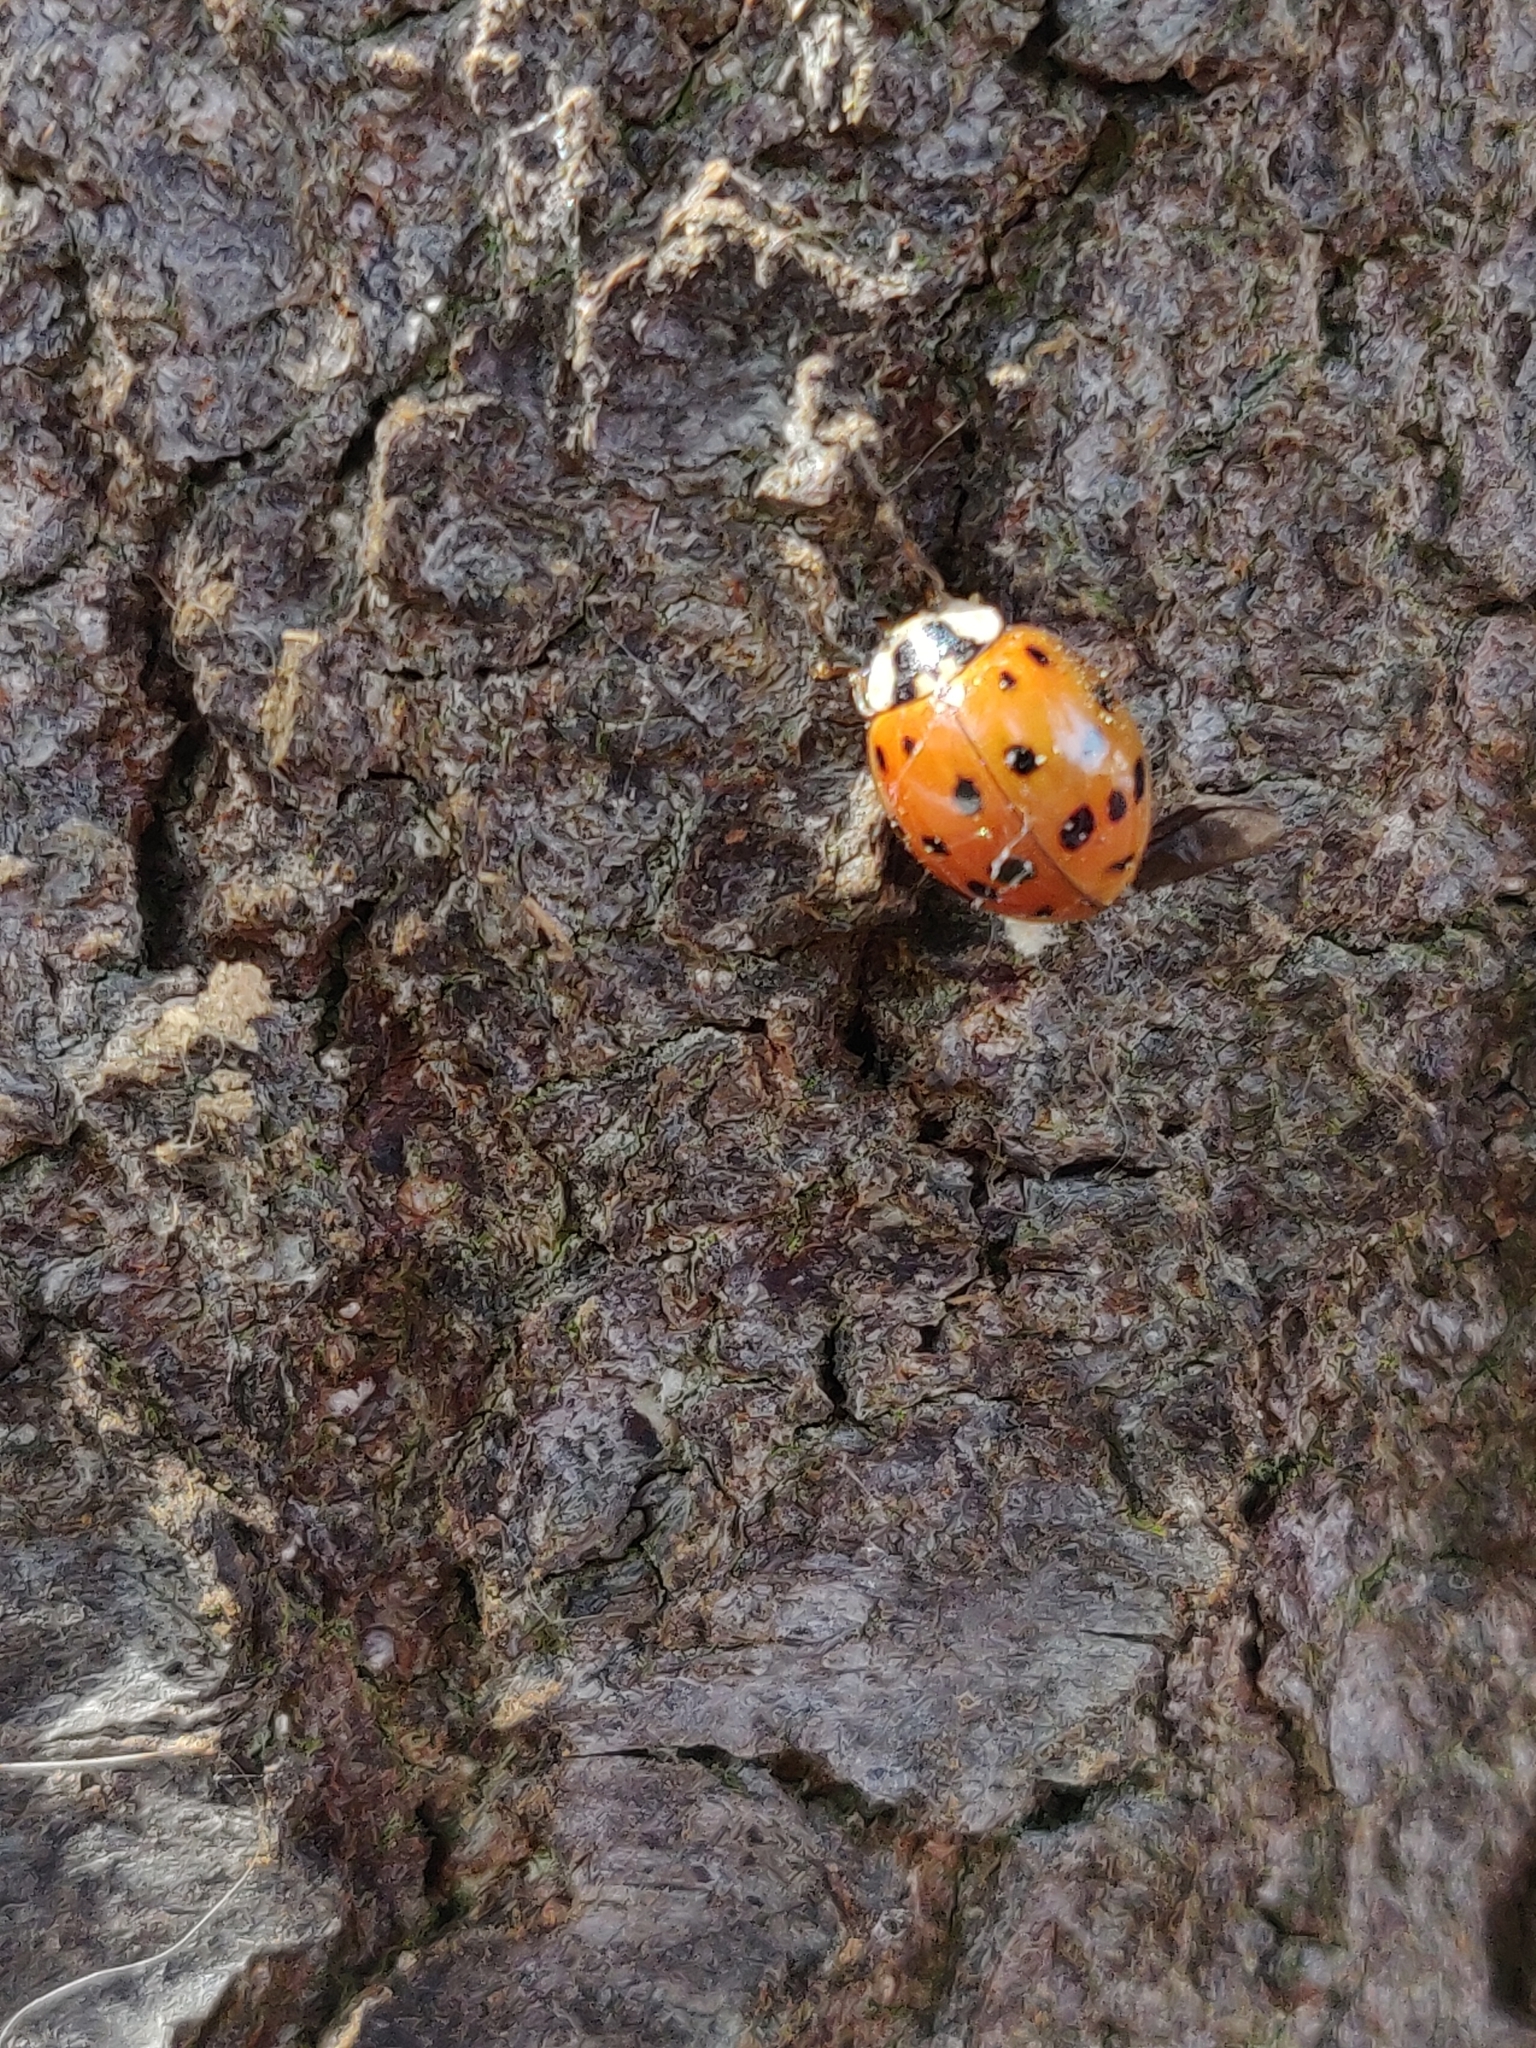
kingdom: Animalia
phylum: Arthropoda
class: Insecta
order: Coleoptera
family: Coccinellidae
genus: Harmonia
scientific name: Harmonia axyridis
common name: Harlequin ladybird
